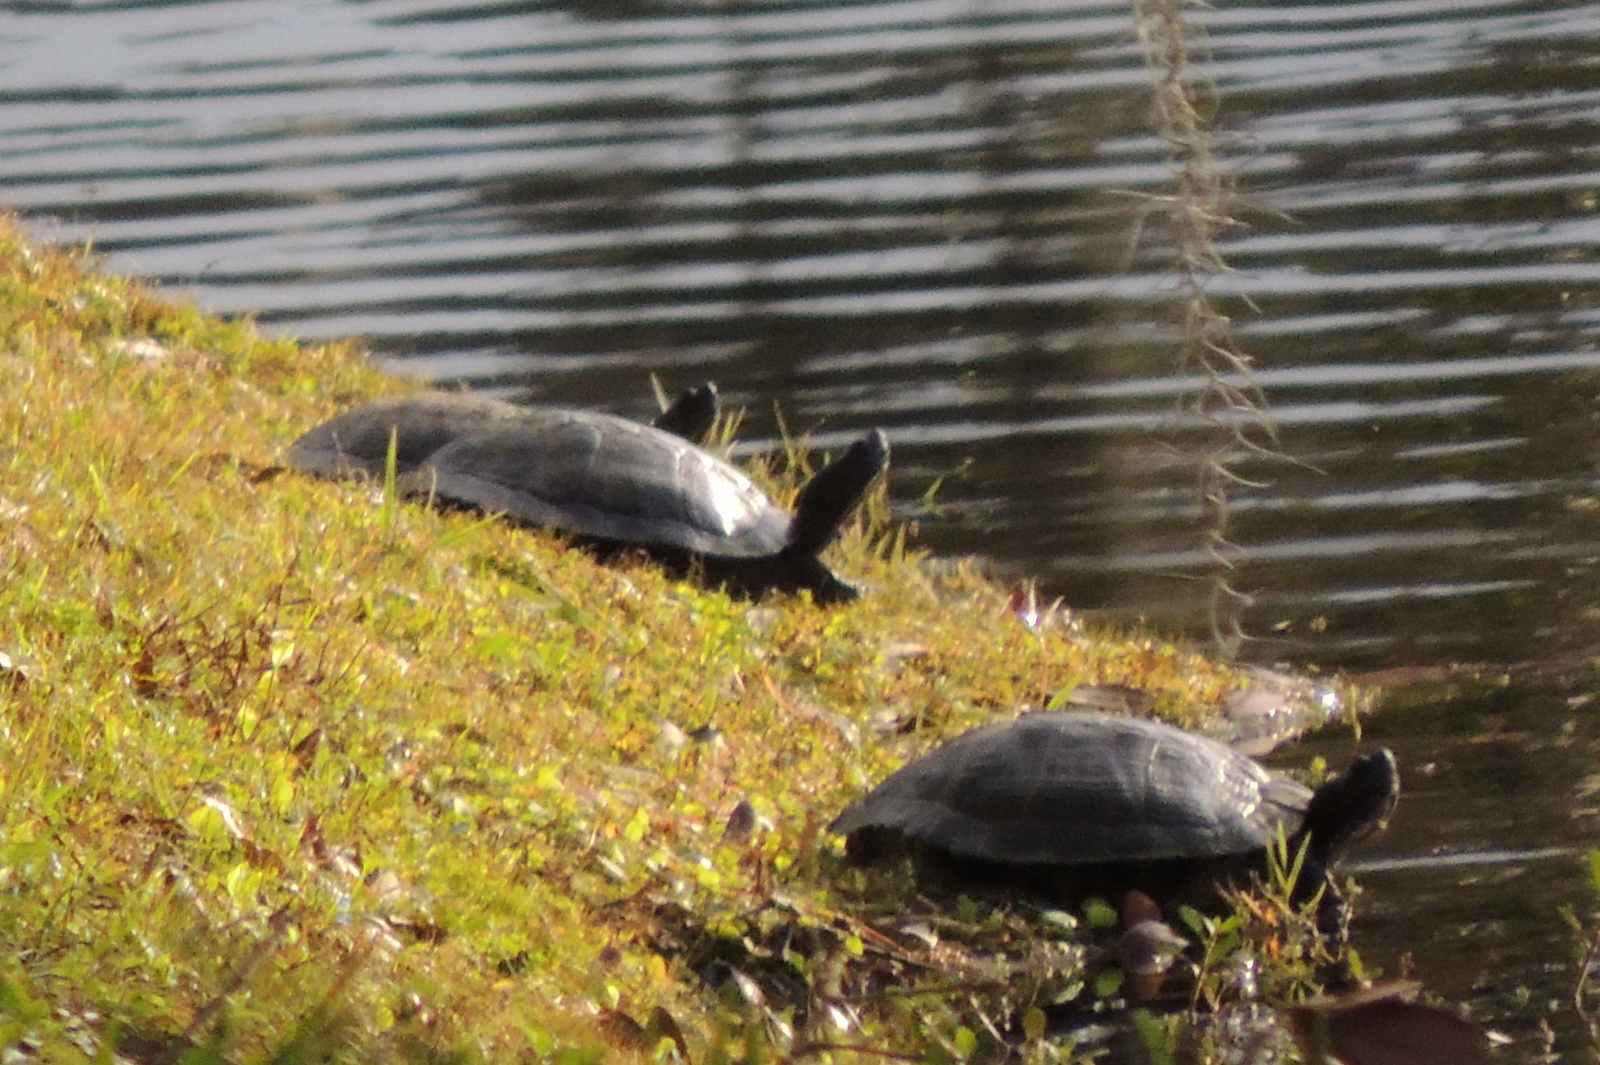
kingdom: Animalia
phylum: Chordata
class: Testudines
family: Emydidae
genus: Trachemys
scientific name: Trachemys scripta
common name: Slider
